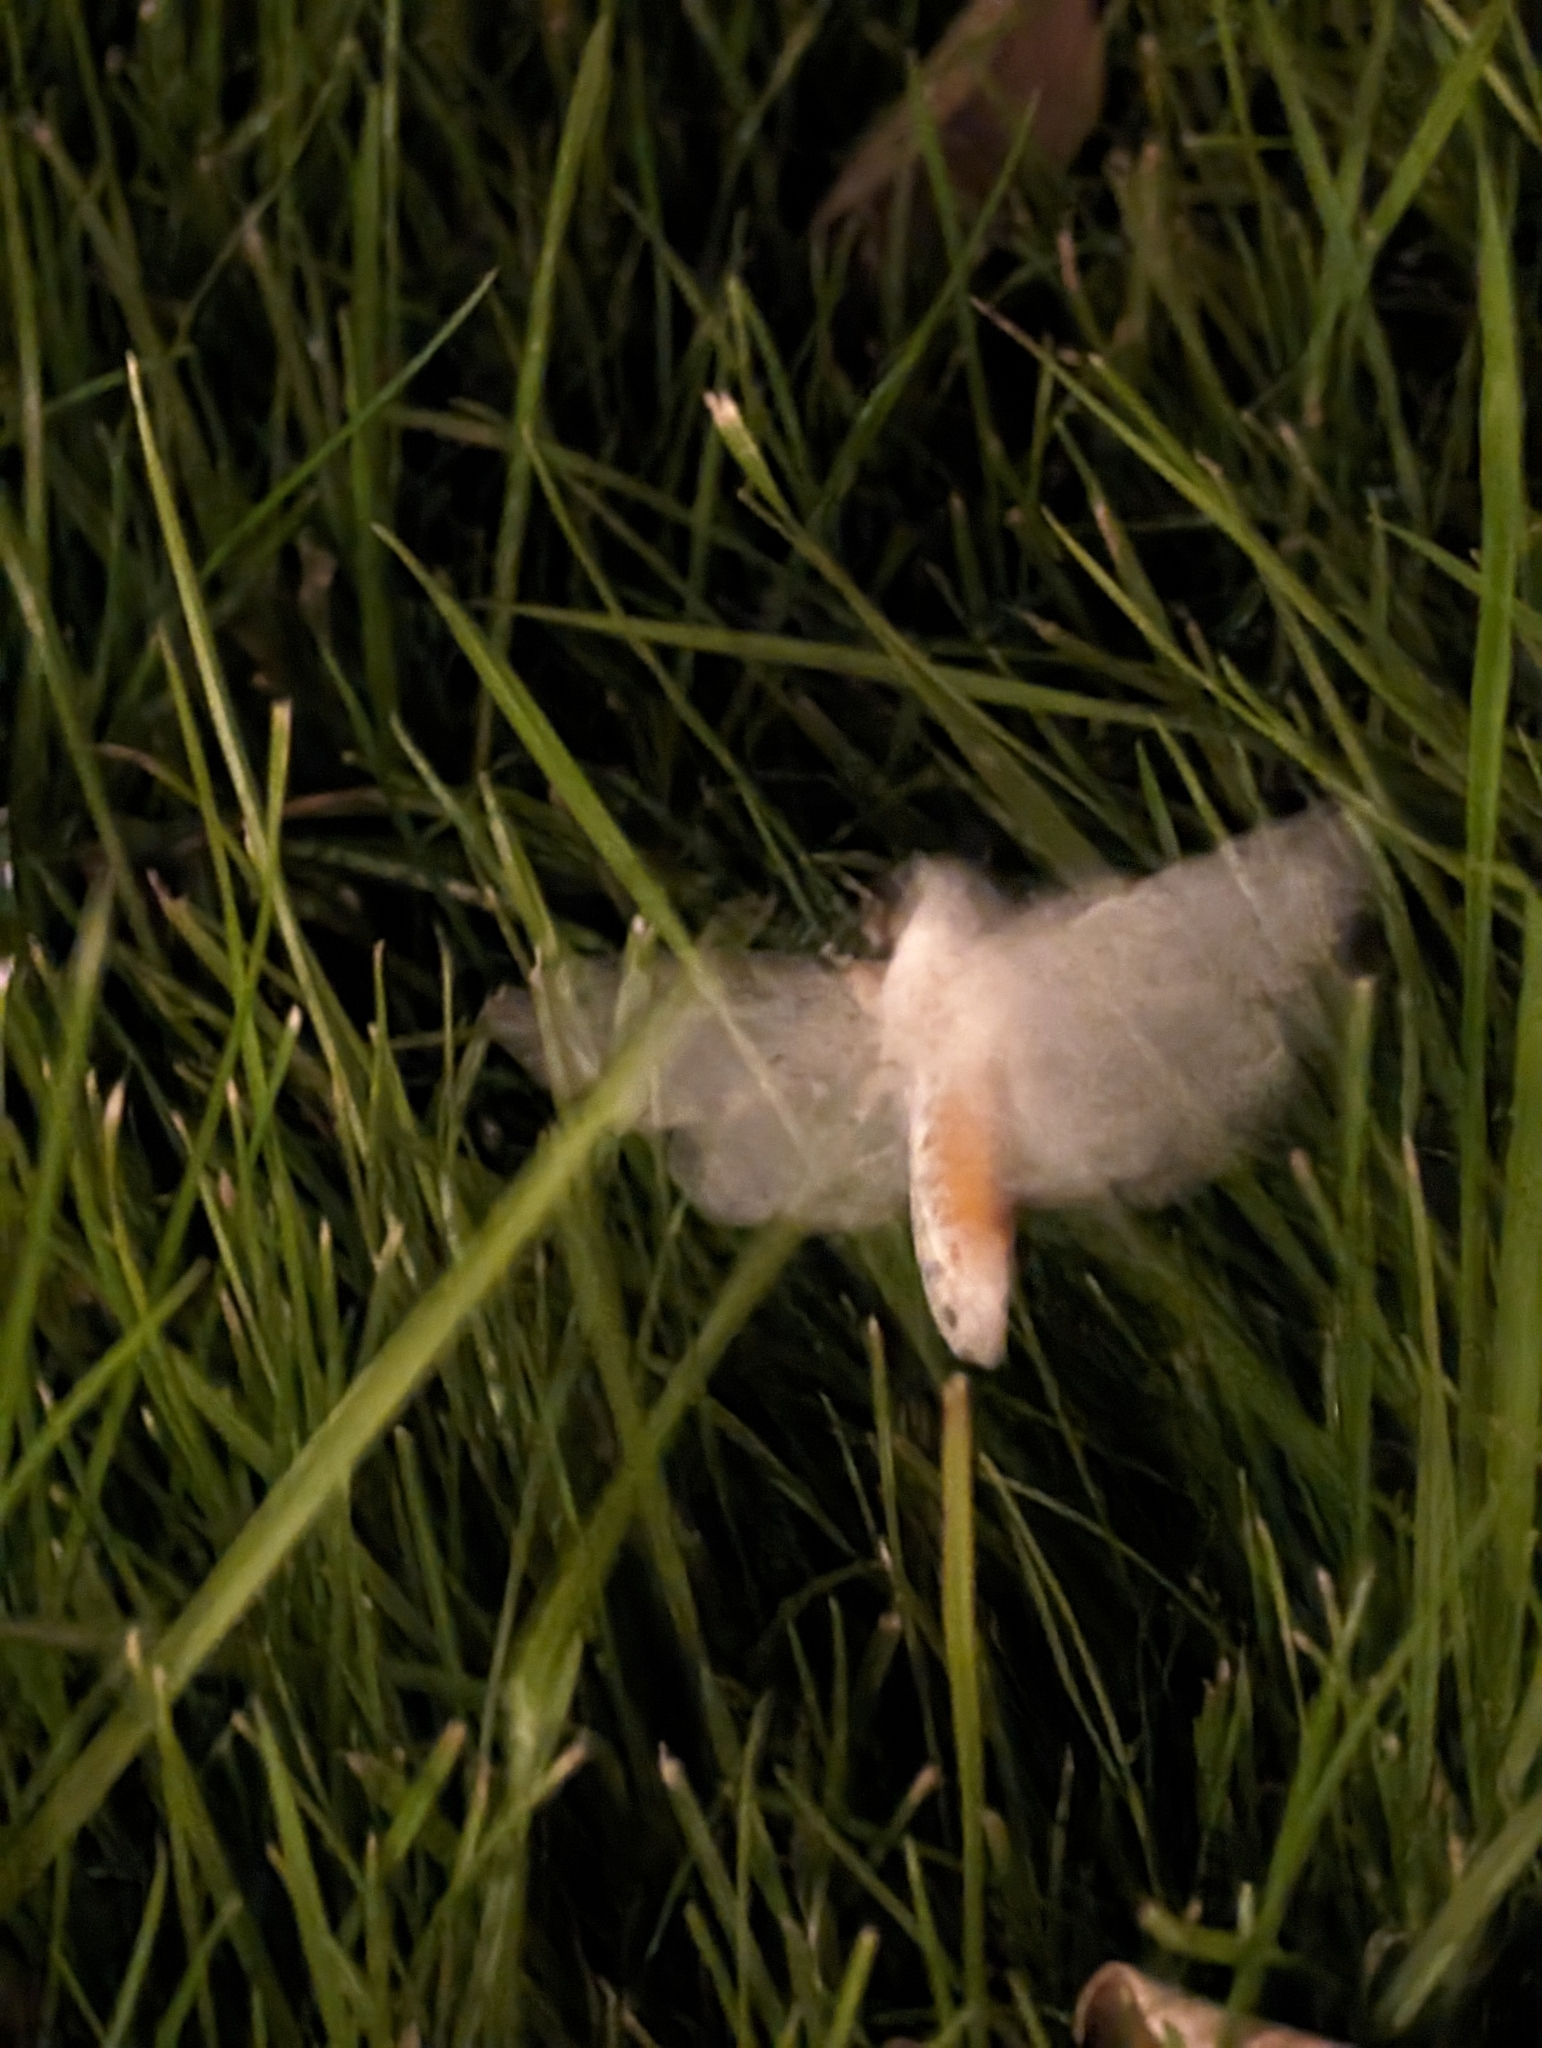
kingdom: Animalia
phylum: Arthropoda
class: Insecta
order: Lepidoptera
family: Erebidae
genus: Estigmene
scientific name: Estigmene acrea
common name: Salt marsh moth
